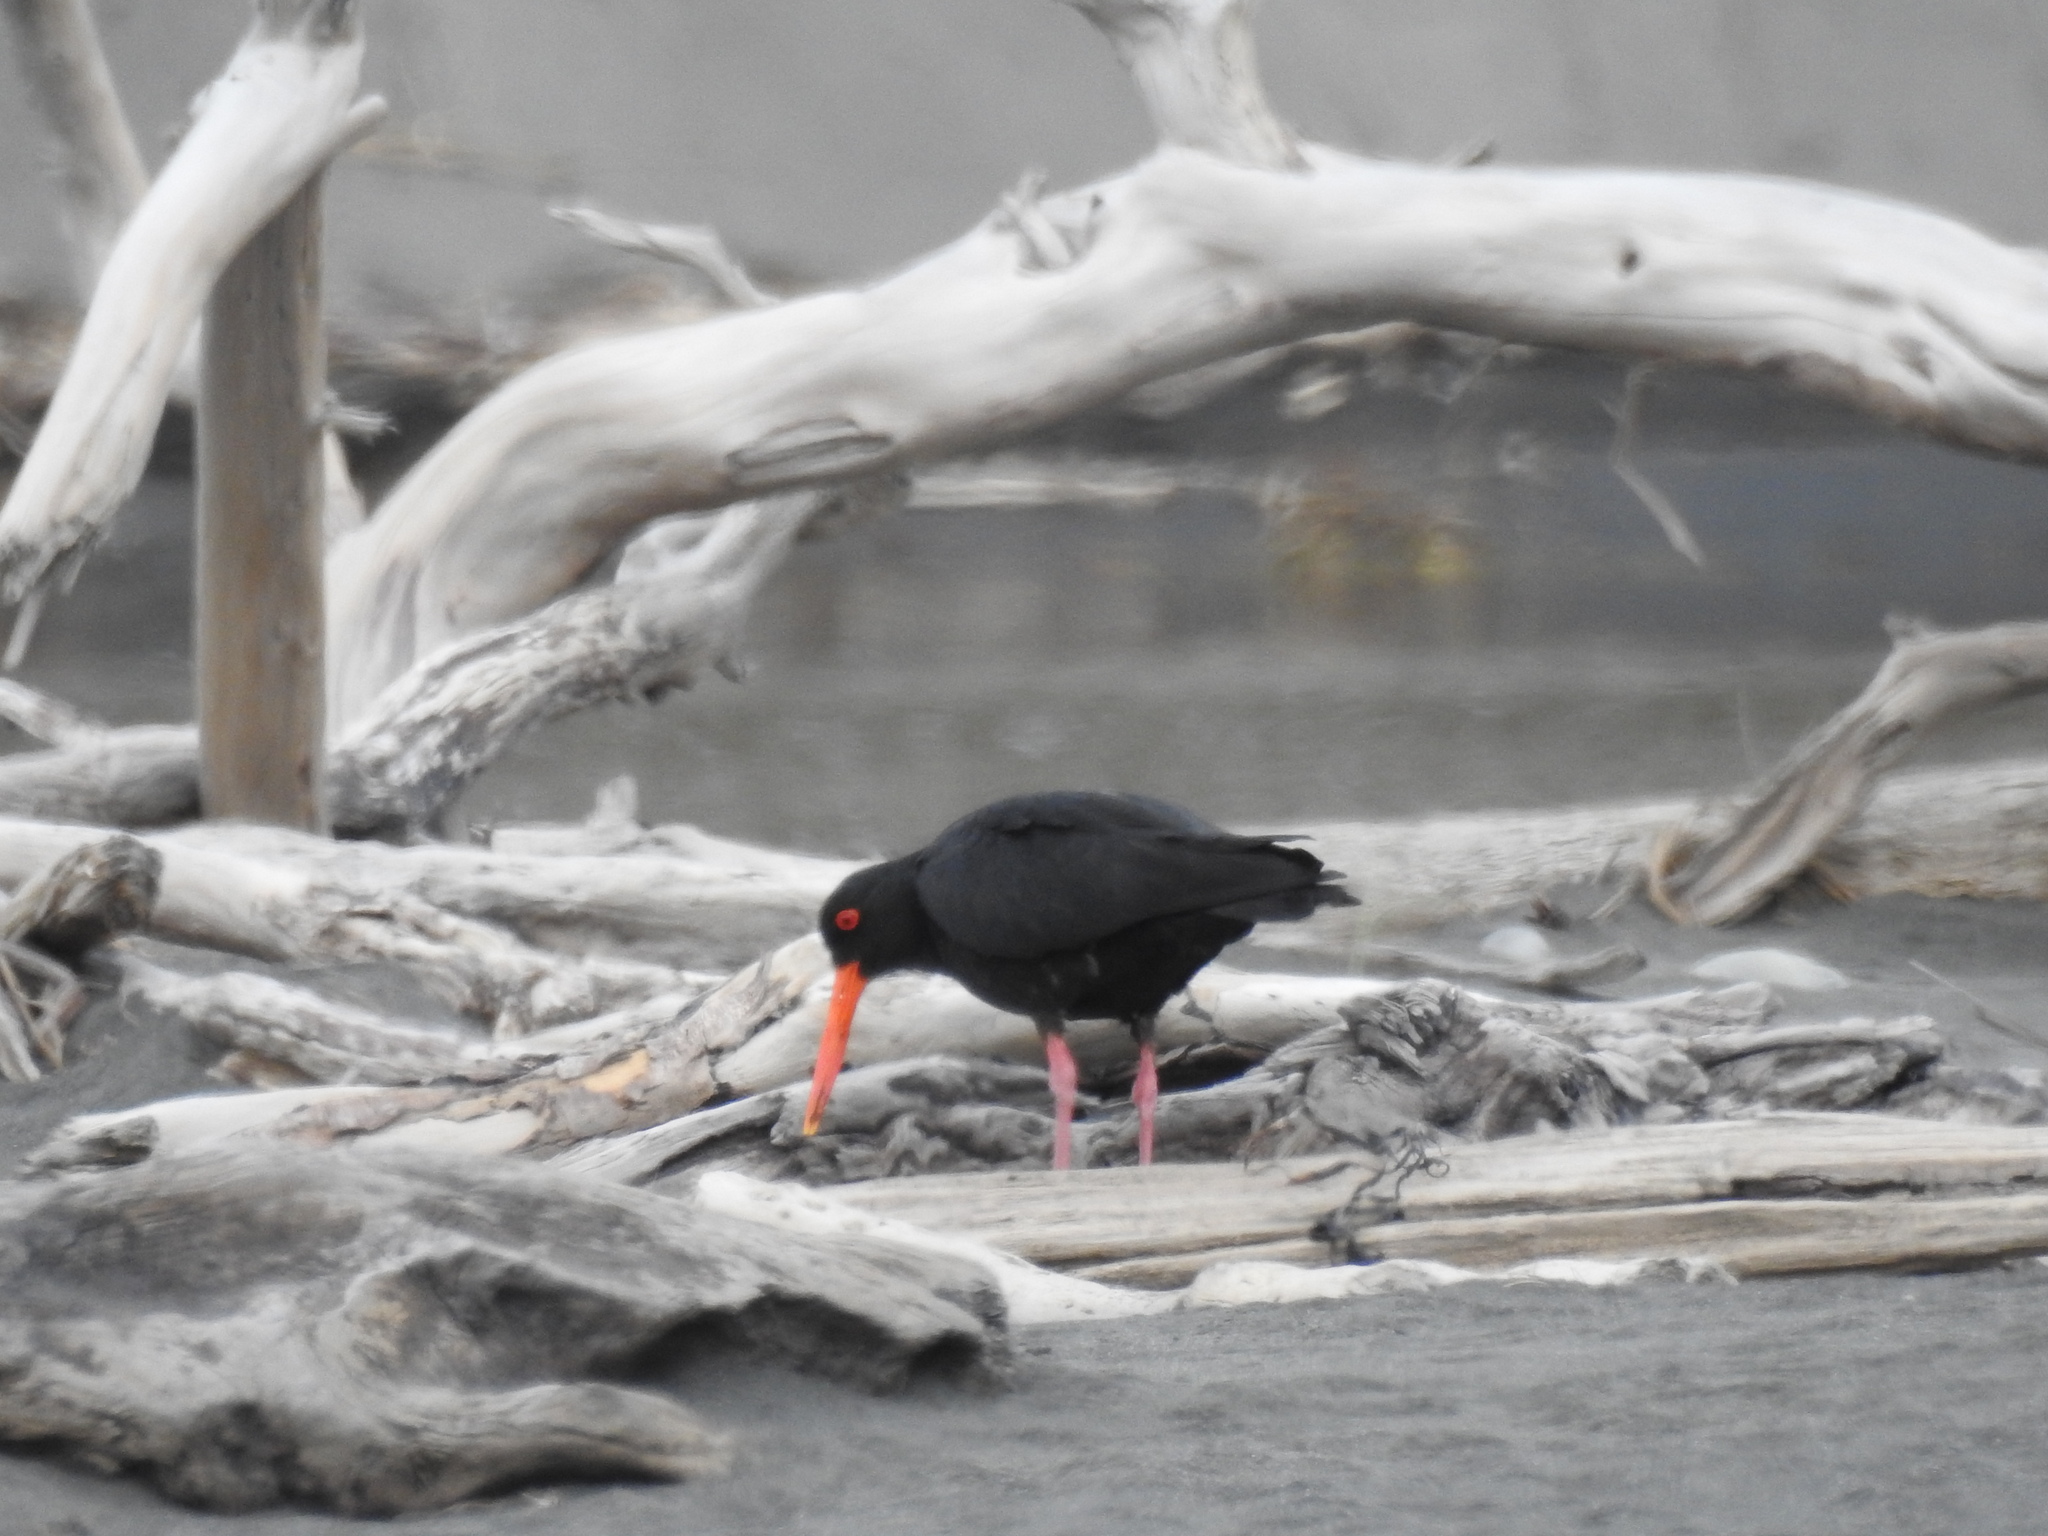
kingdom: Animalia
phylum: Chordata
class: Aves
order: Charadriiformes
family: Haematopodidae
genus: Haematopus
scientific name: Haematopus unicolor
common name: Variable oystercatcher
